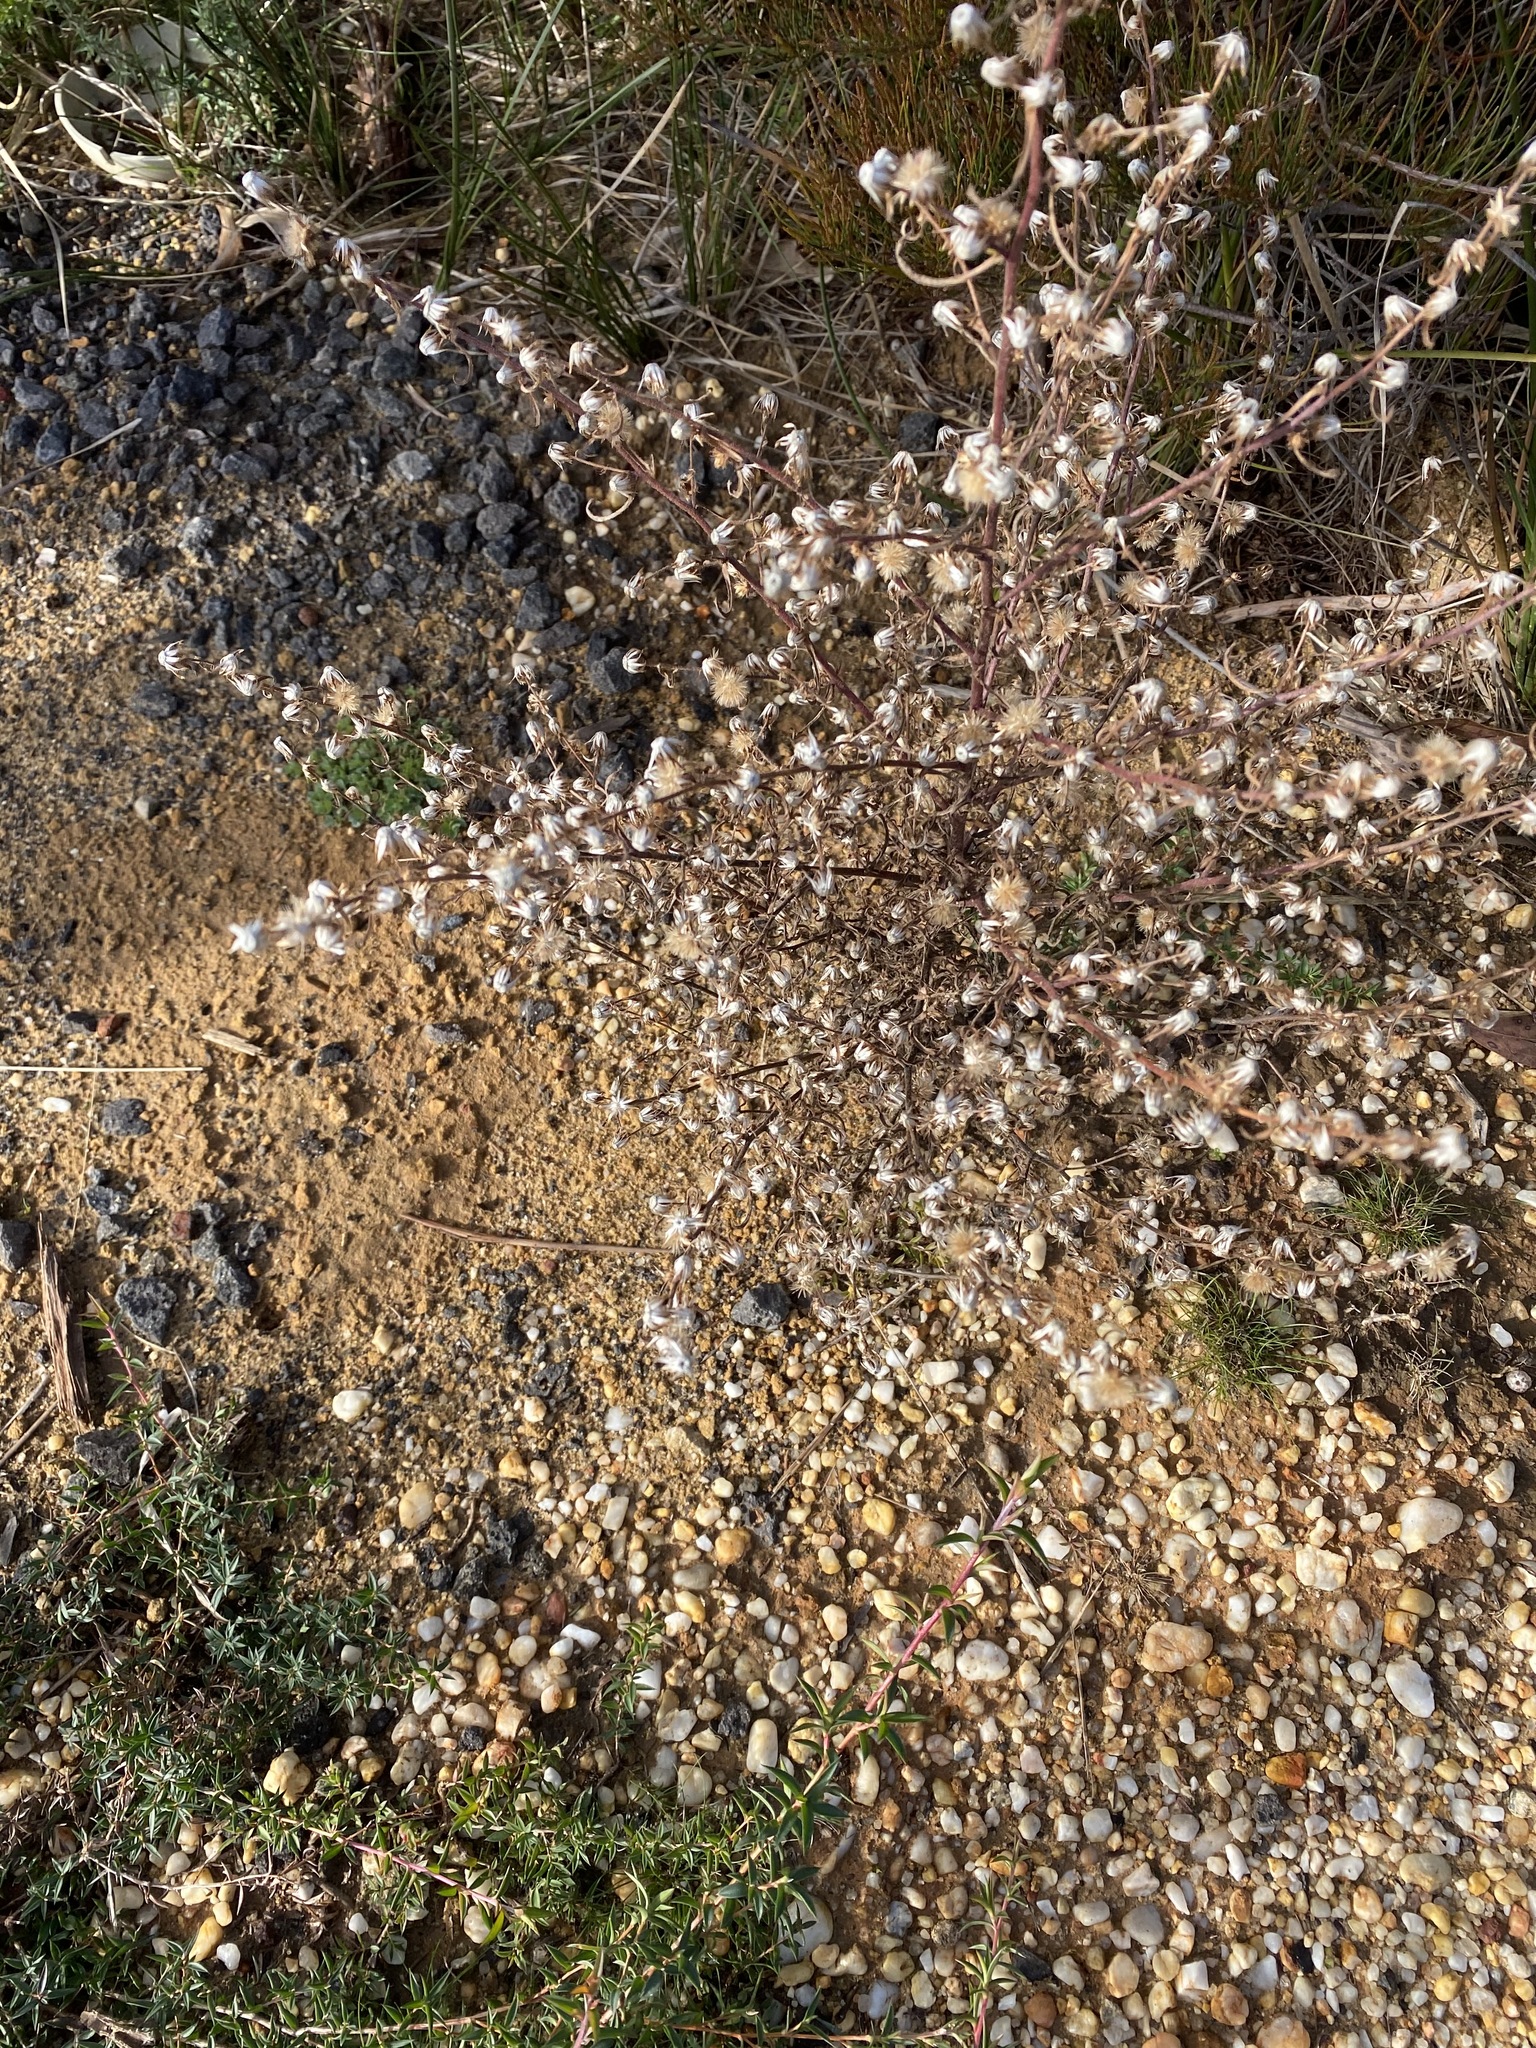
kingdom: Plantae
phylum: Tracheophyta
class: Magnoliopsida
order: Asterales
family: Asteraceae
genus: Symphyotrichum
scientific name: Symphyotrichum subulatum
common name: Annual saltmarsh aster
